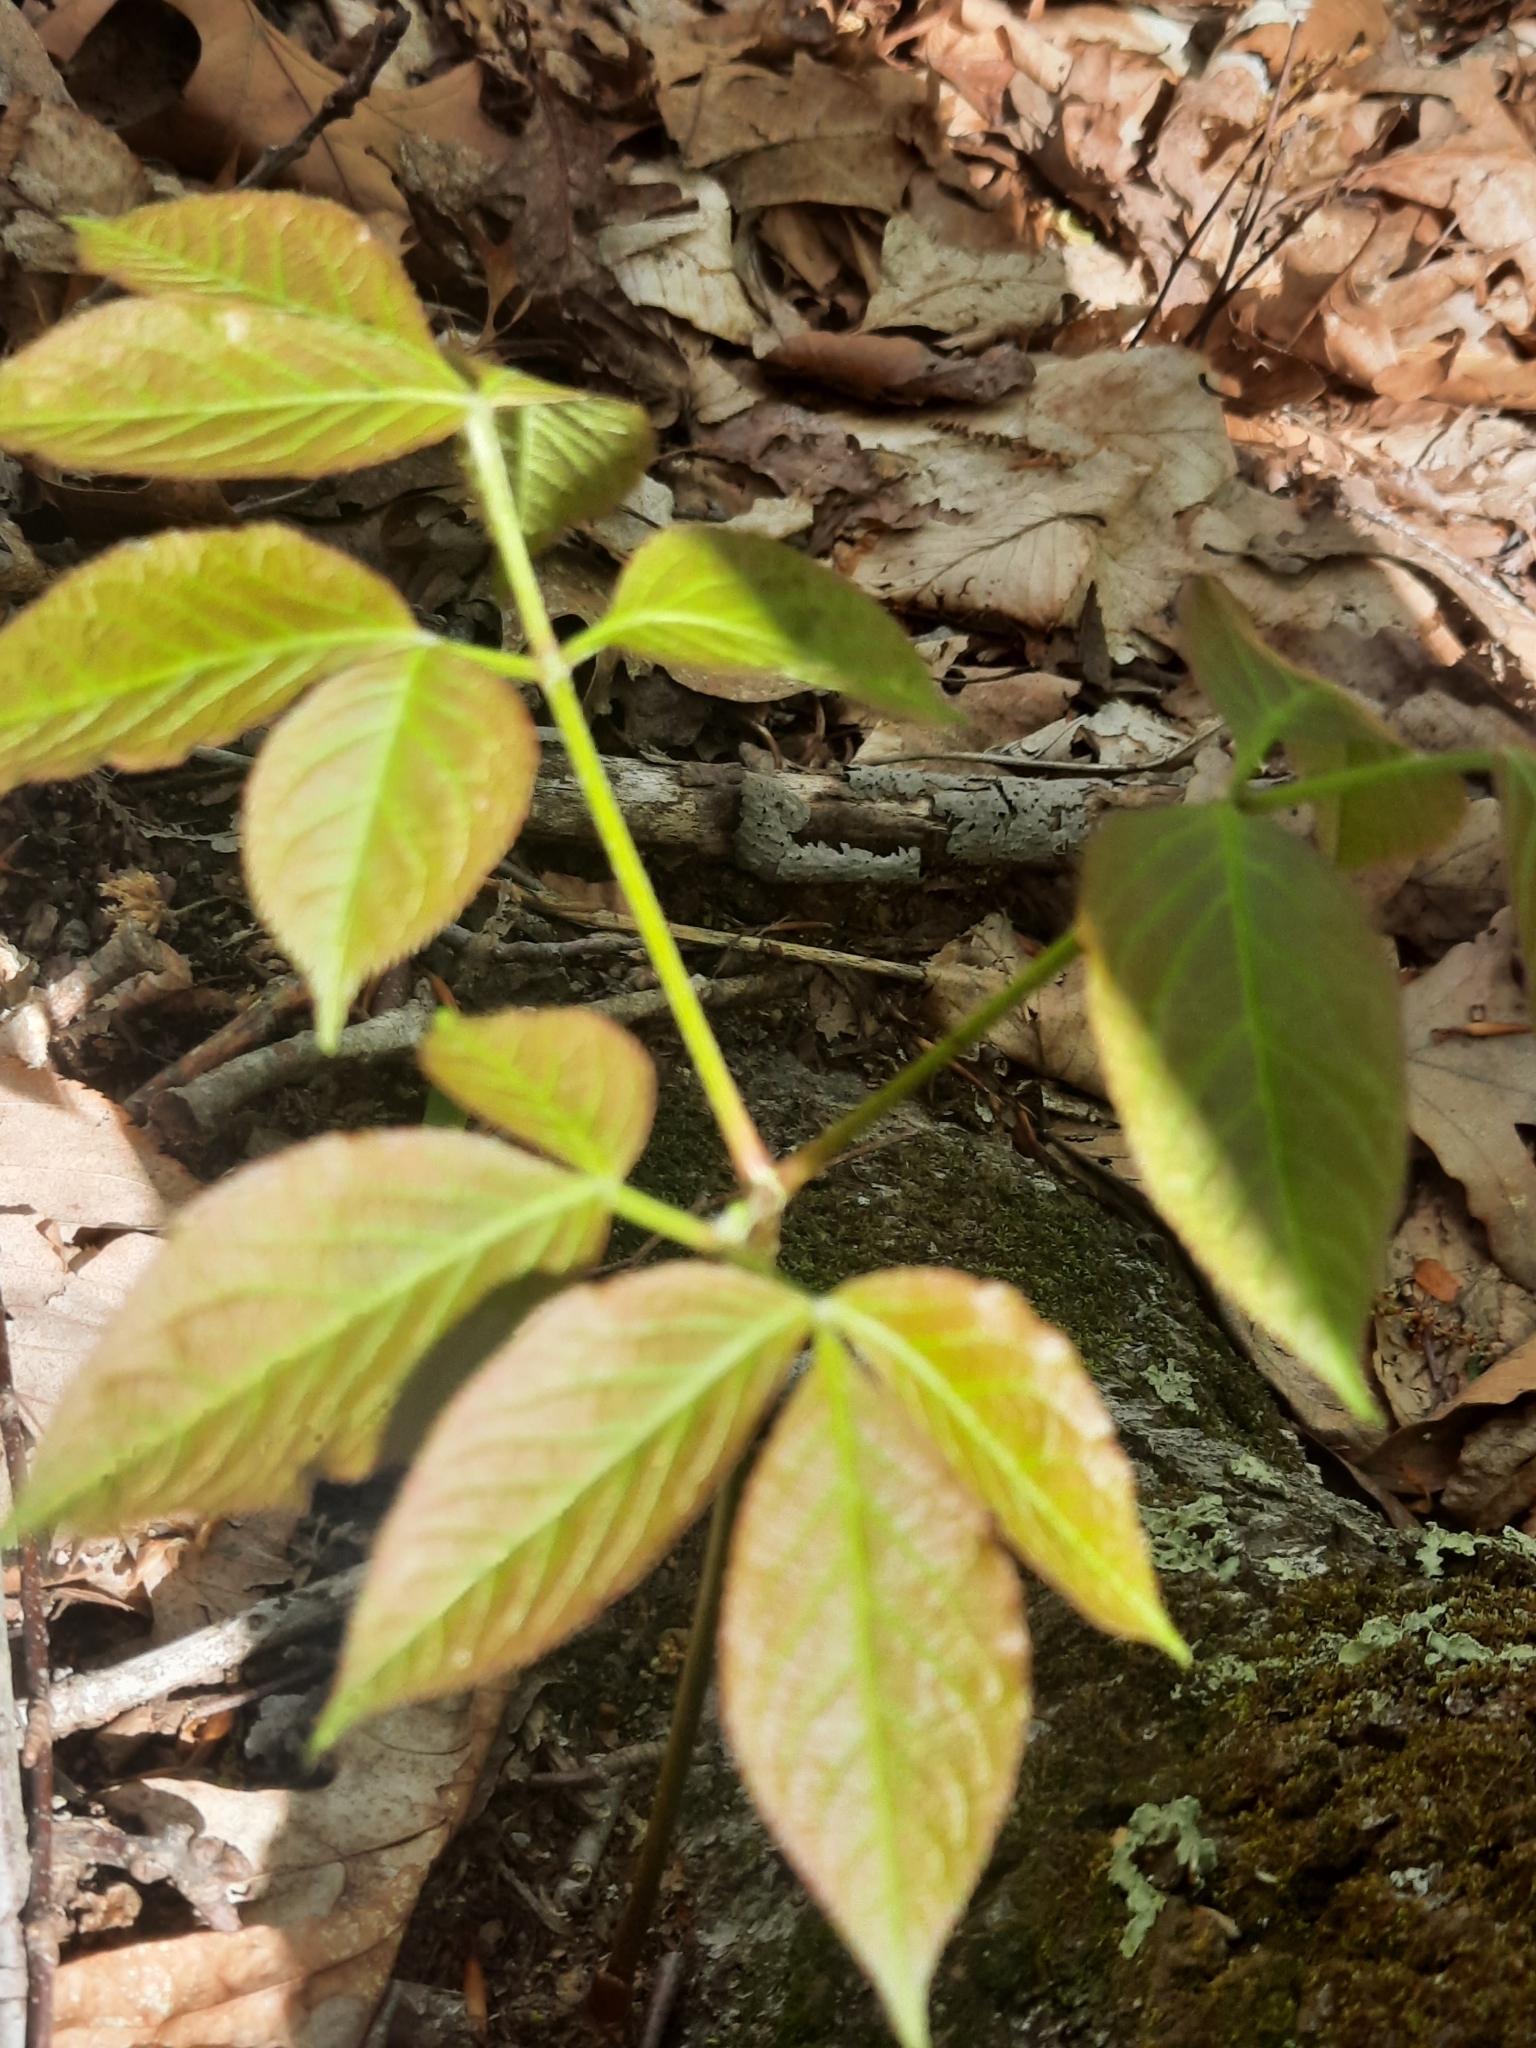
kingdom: Plantae
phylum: Tracheophyta
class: Magnoliopsida
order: Apiales
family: Araliaceae
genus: Aralia
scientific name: Aralia nudicaulis
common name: Wild sarsaparilla
